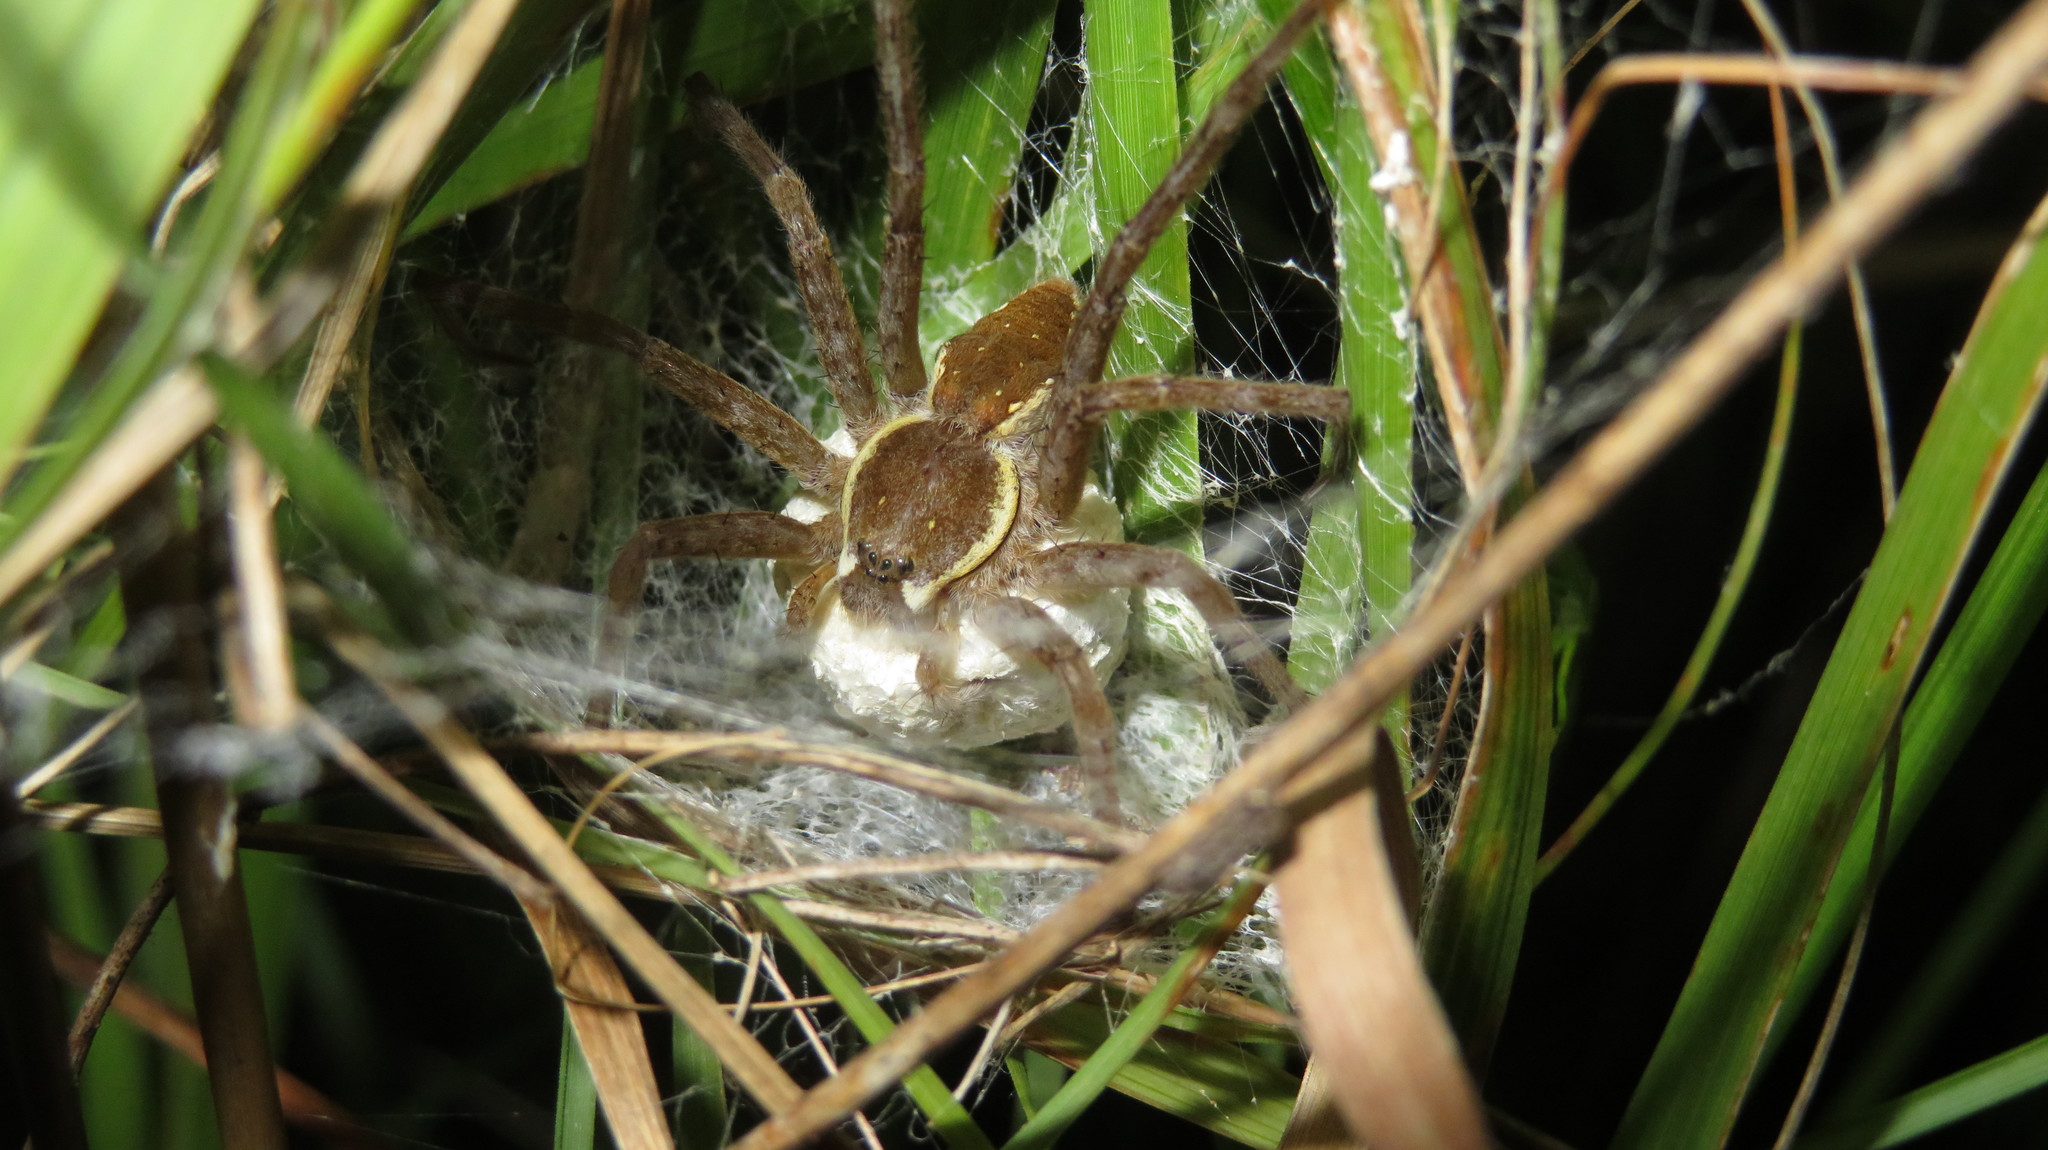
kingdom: Animalia
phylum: Arthropoda
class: Arachnida
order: Araneae
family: Pisauridae
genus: Nilus
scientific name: Nilus margaritatus
